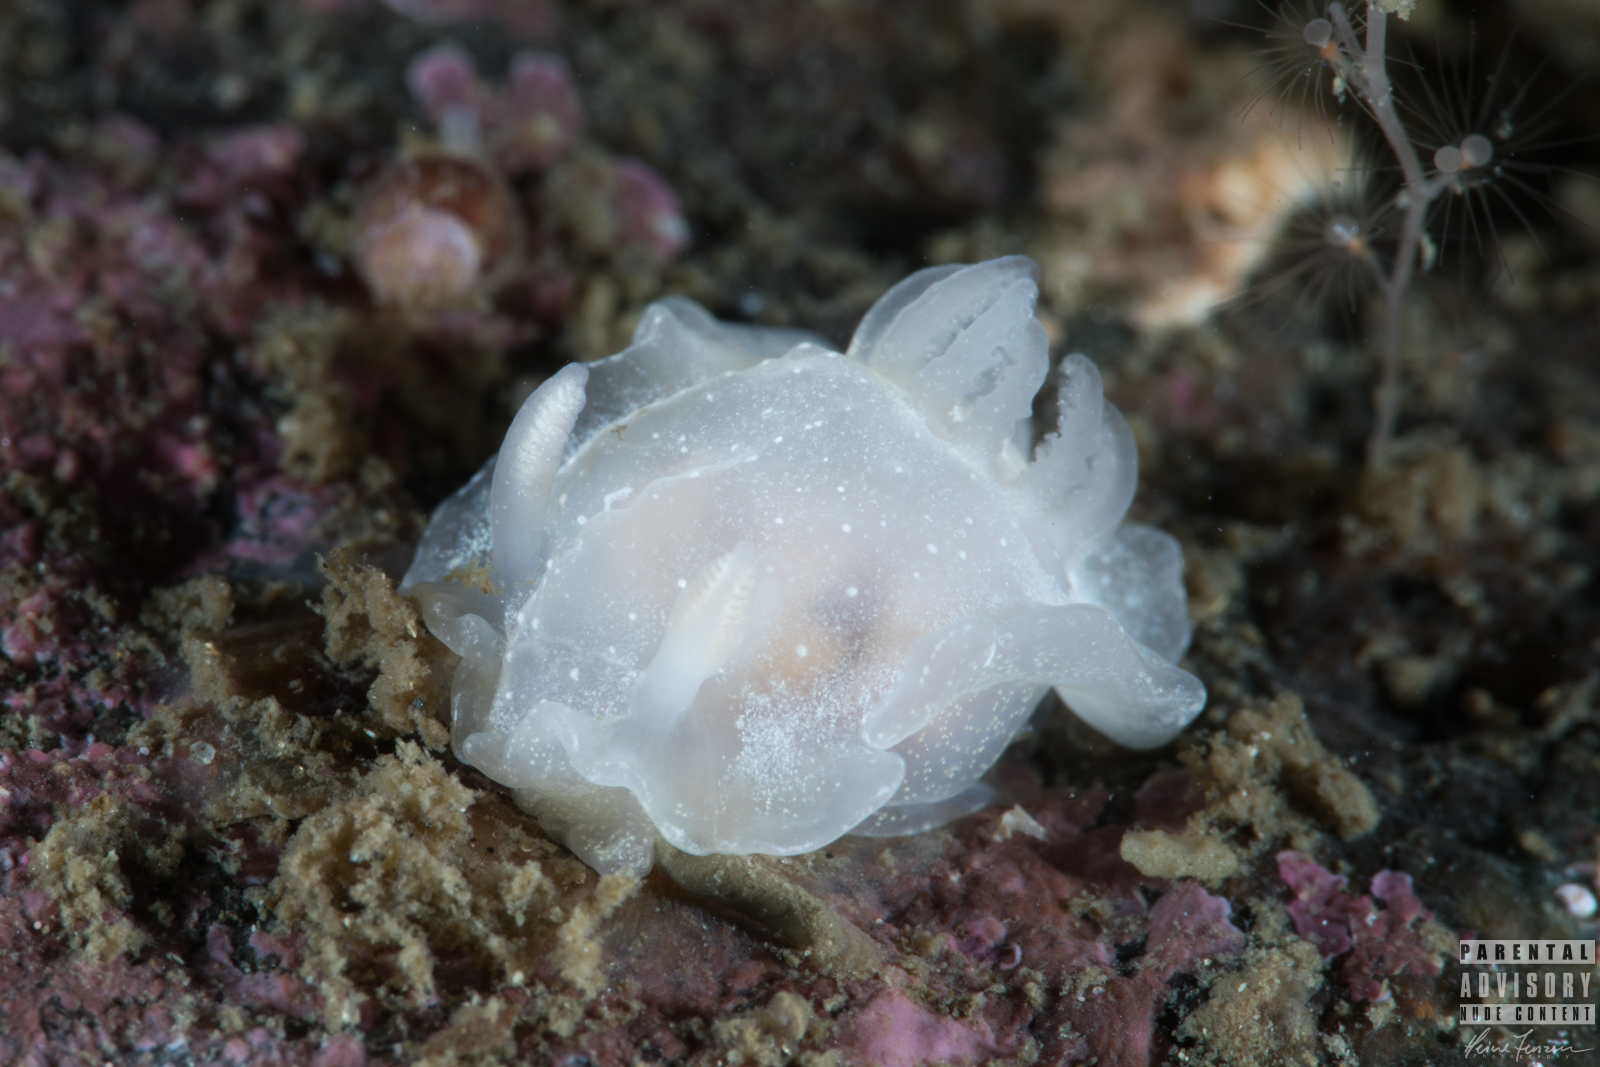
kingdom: Animalia
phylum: Mollusca
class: Gastropoda
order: Nudibranchia
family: Goniodorididae
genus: Okenia
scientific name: Okenia
